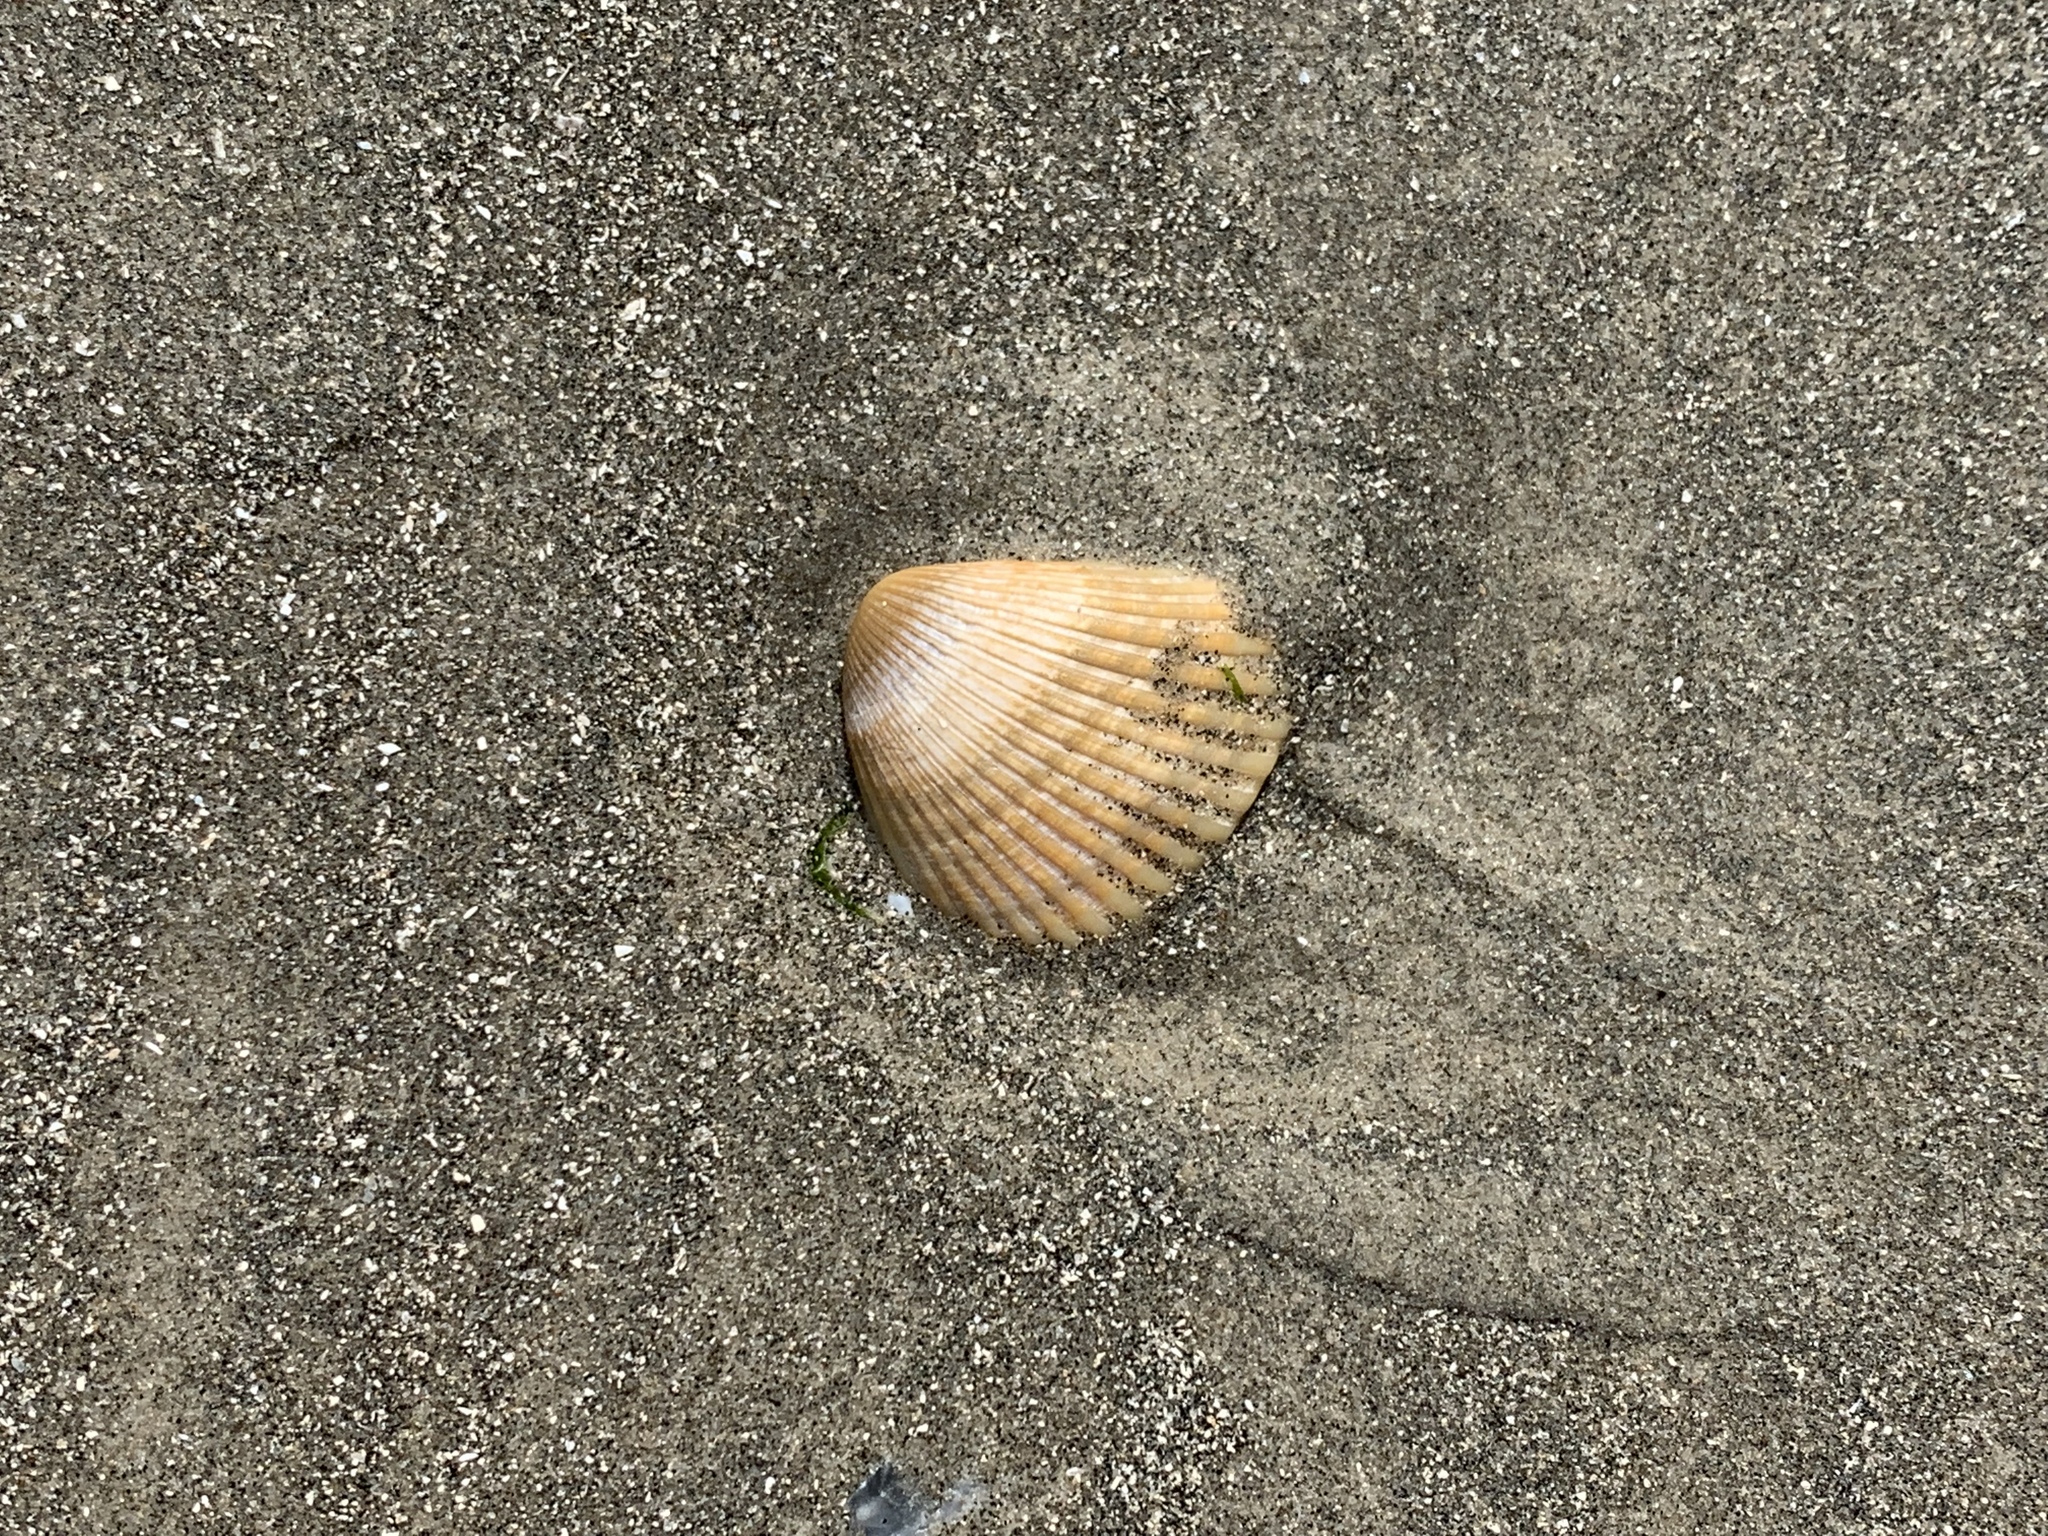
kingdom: Animalia
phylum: Mollusca
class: Bivalvia
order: Arcida
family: Noetiidae
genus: Noetia
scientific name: Noetia ponderosa
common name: Ponderous ark
